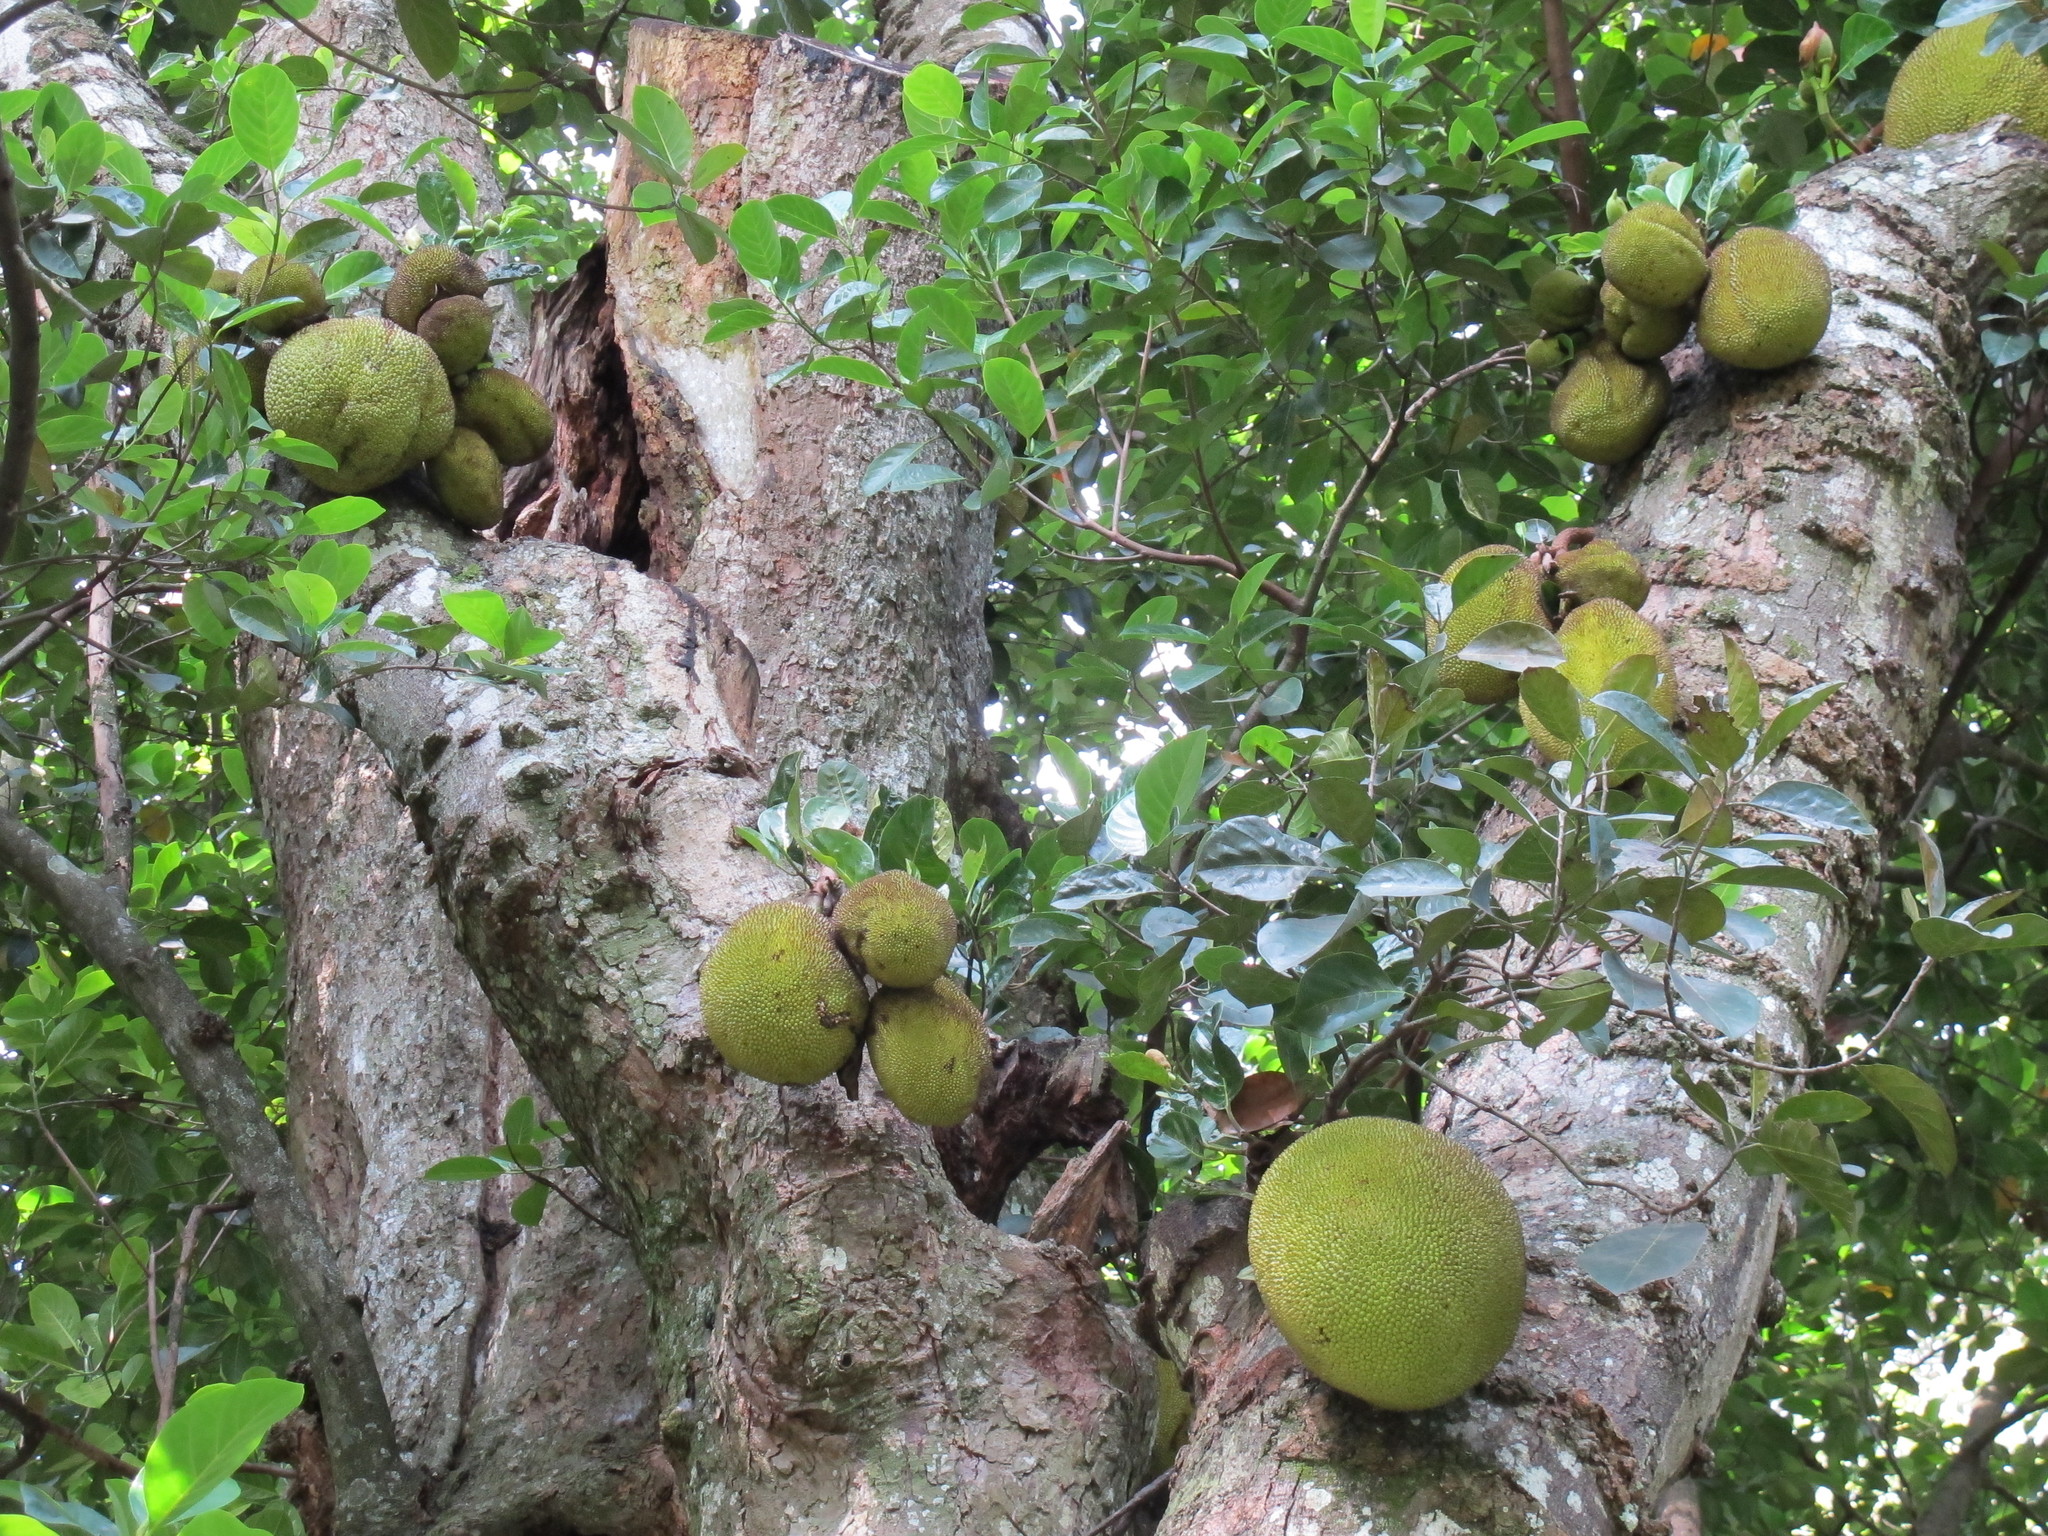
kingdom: Plantae
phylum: Tracheophyta
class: Magnoliopsida
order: Rosales
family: Moraceae
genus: Artocarpus
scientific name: Artocarpus heterophyllus
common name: Jackfruit
